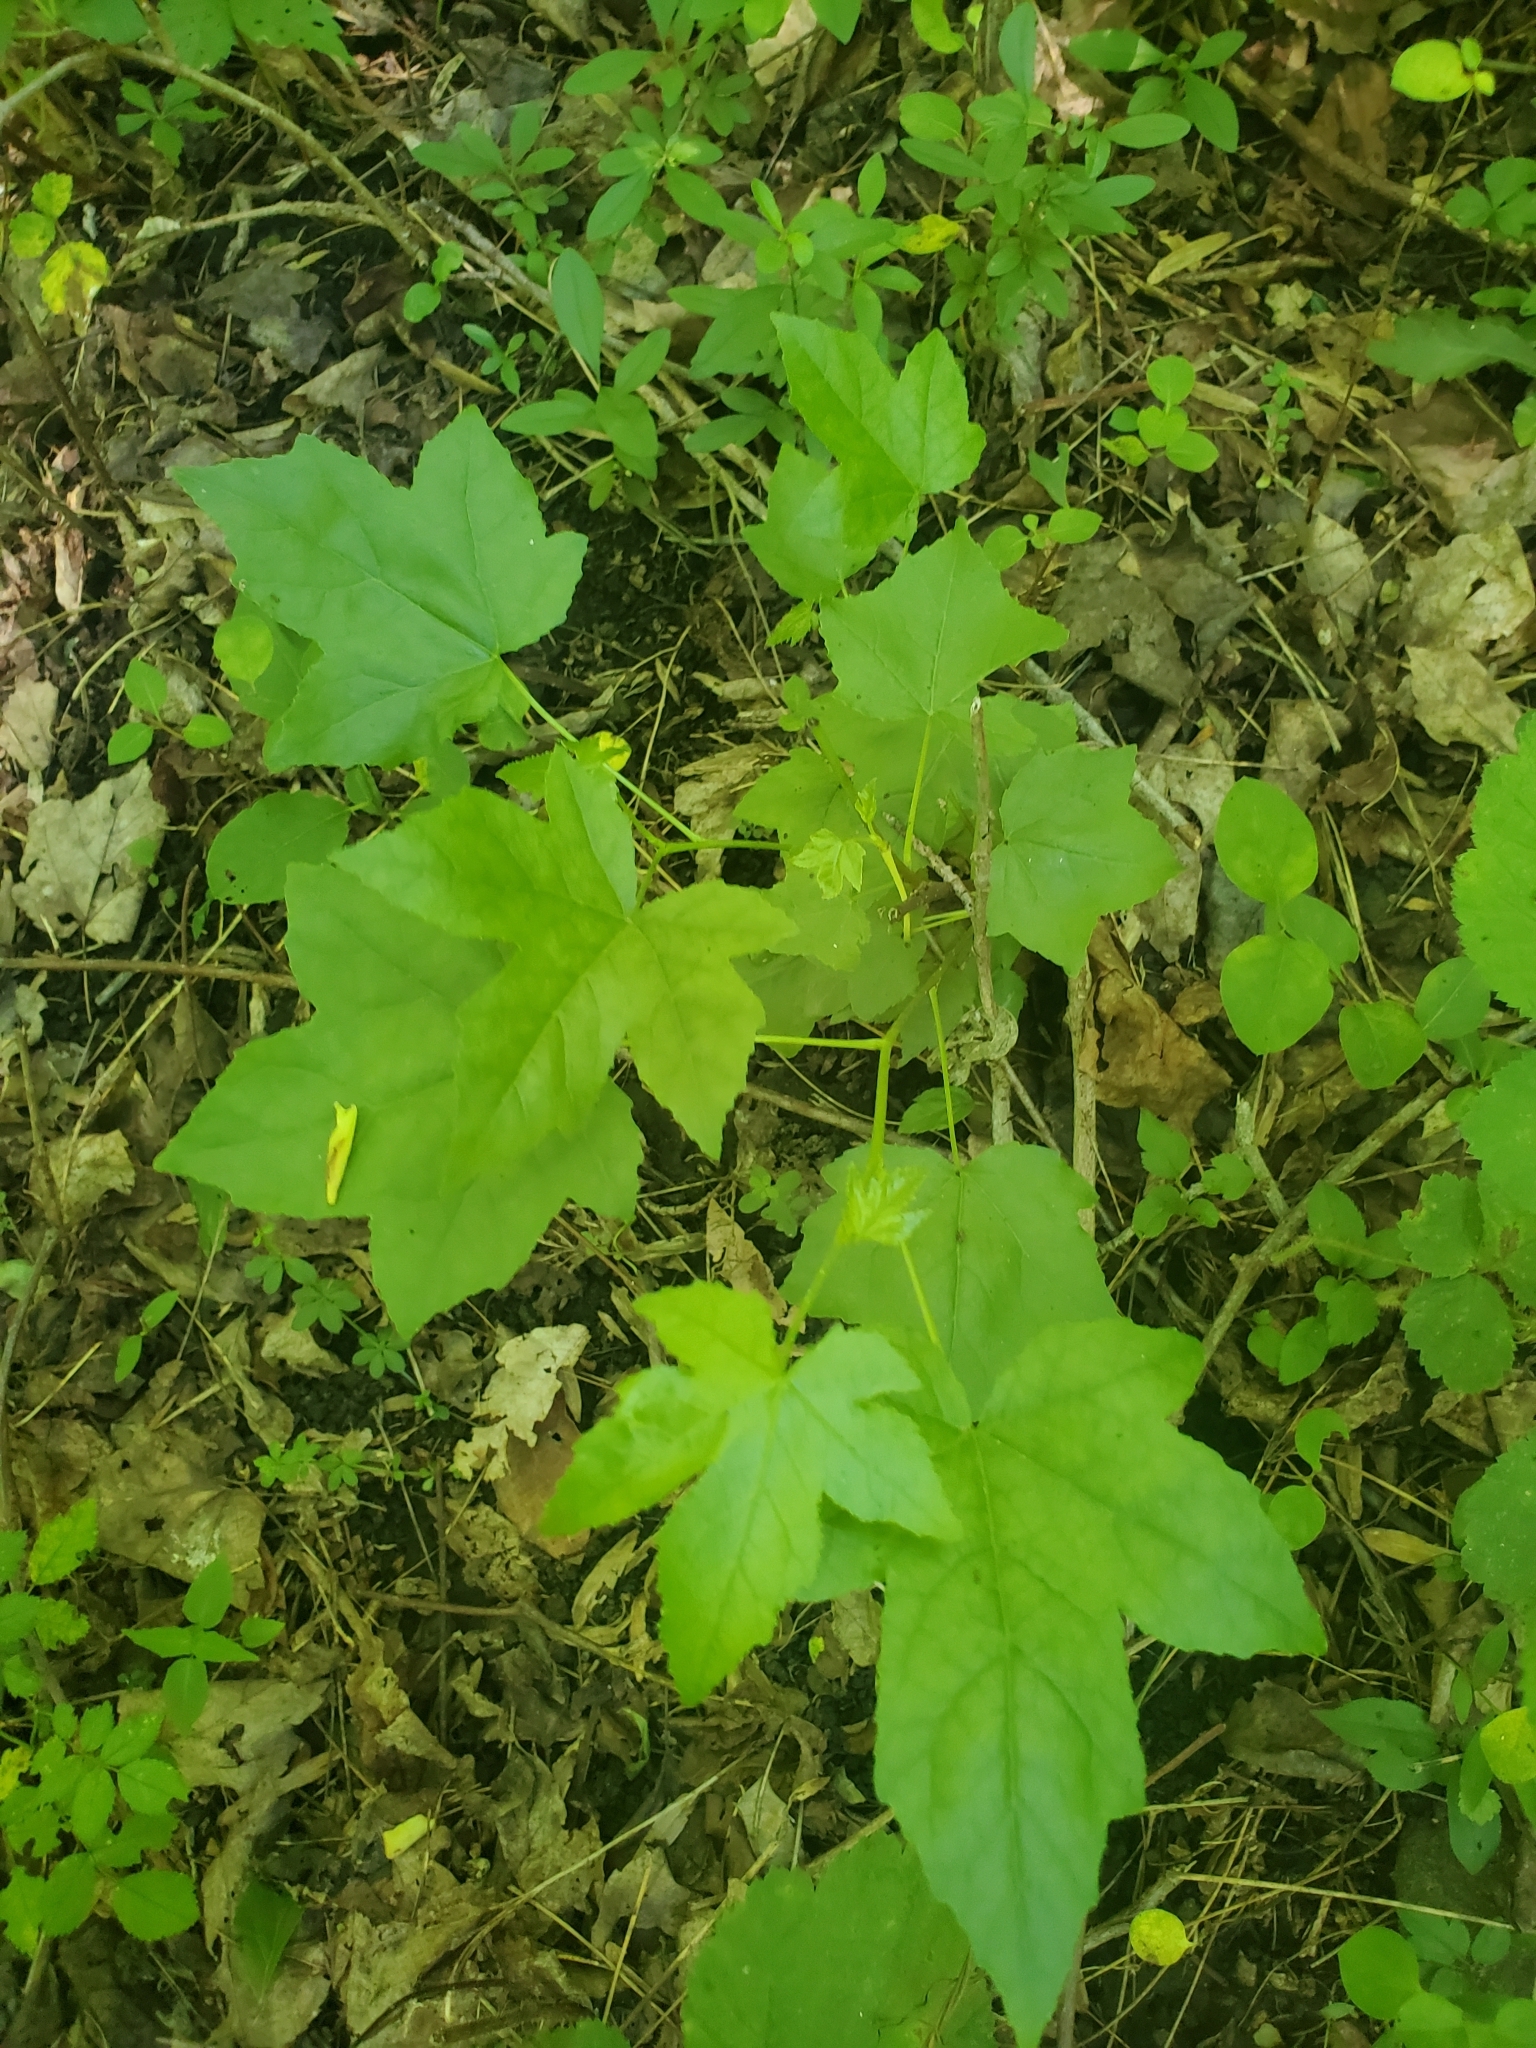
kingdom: Plantae
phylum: Tracheophyta
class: Magnoliopsida
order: Saxifragales
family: Altingiaceae
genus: Liquidambar
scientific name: Liquidambar styraciflua
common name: Sweet gum
